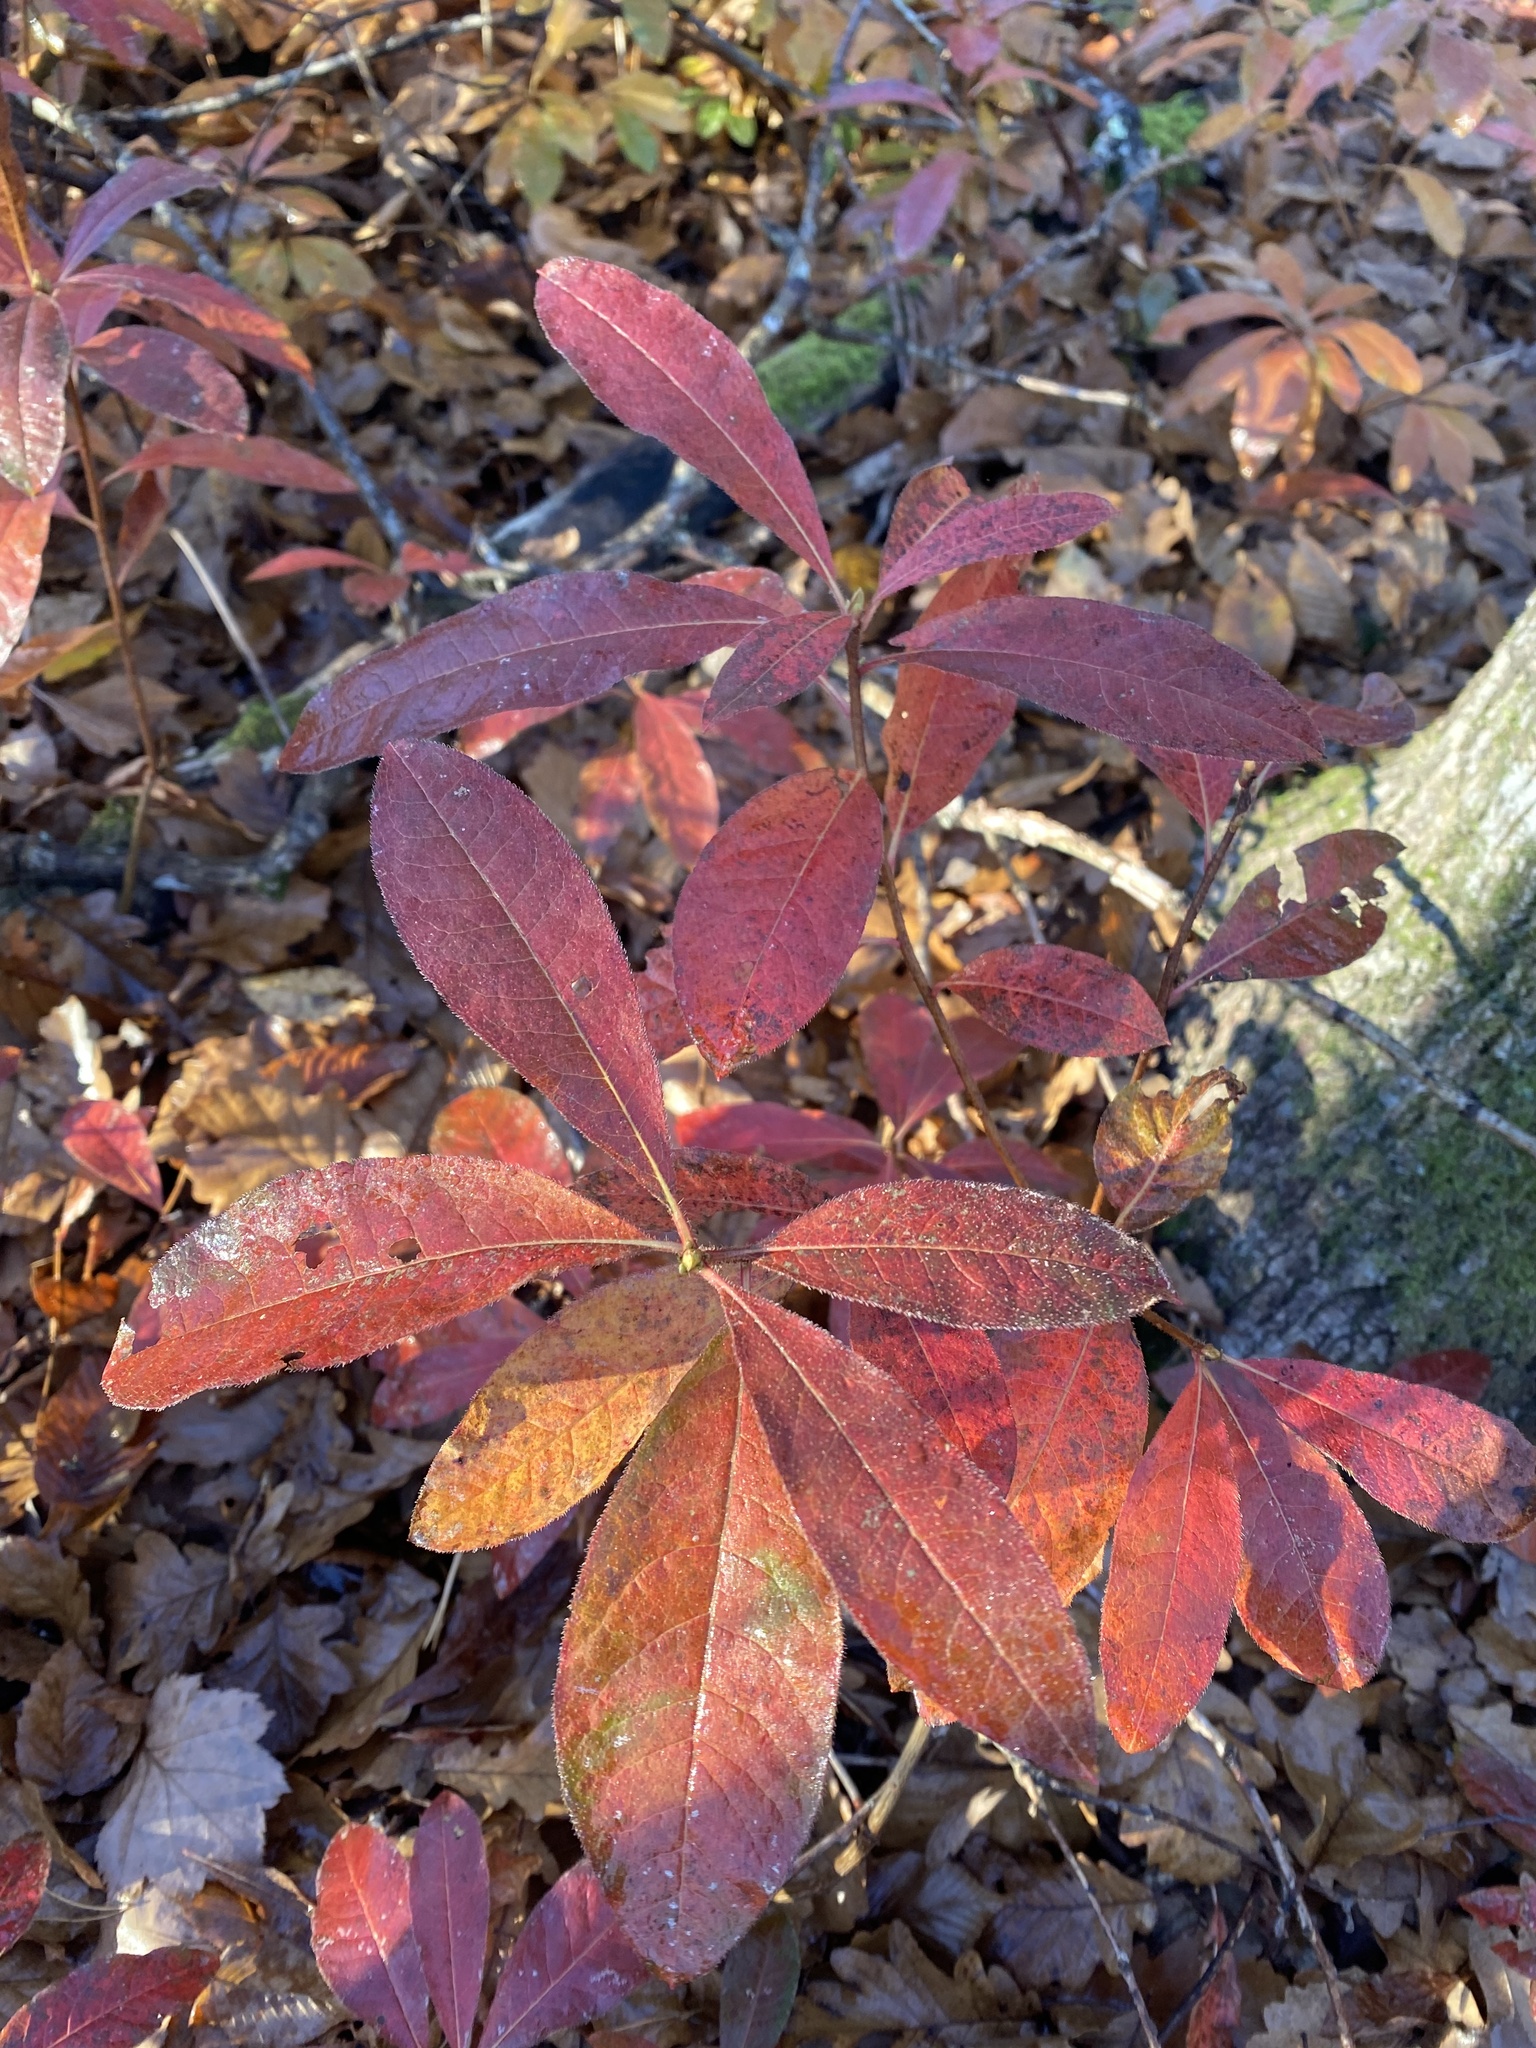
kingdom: Plantae
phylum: Tracheophyta
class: Magnoliopsida
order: Ericales
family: Ericaceae
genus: Rhododendron
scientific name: Rhododendron luteum
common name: Yellow azalea
